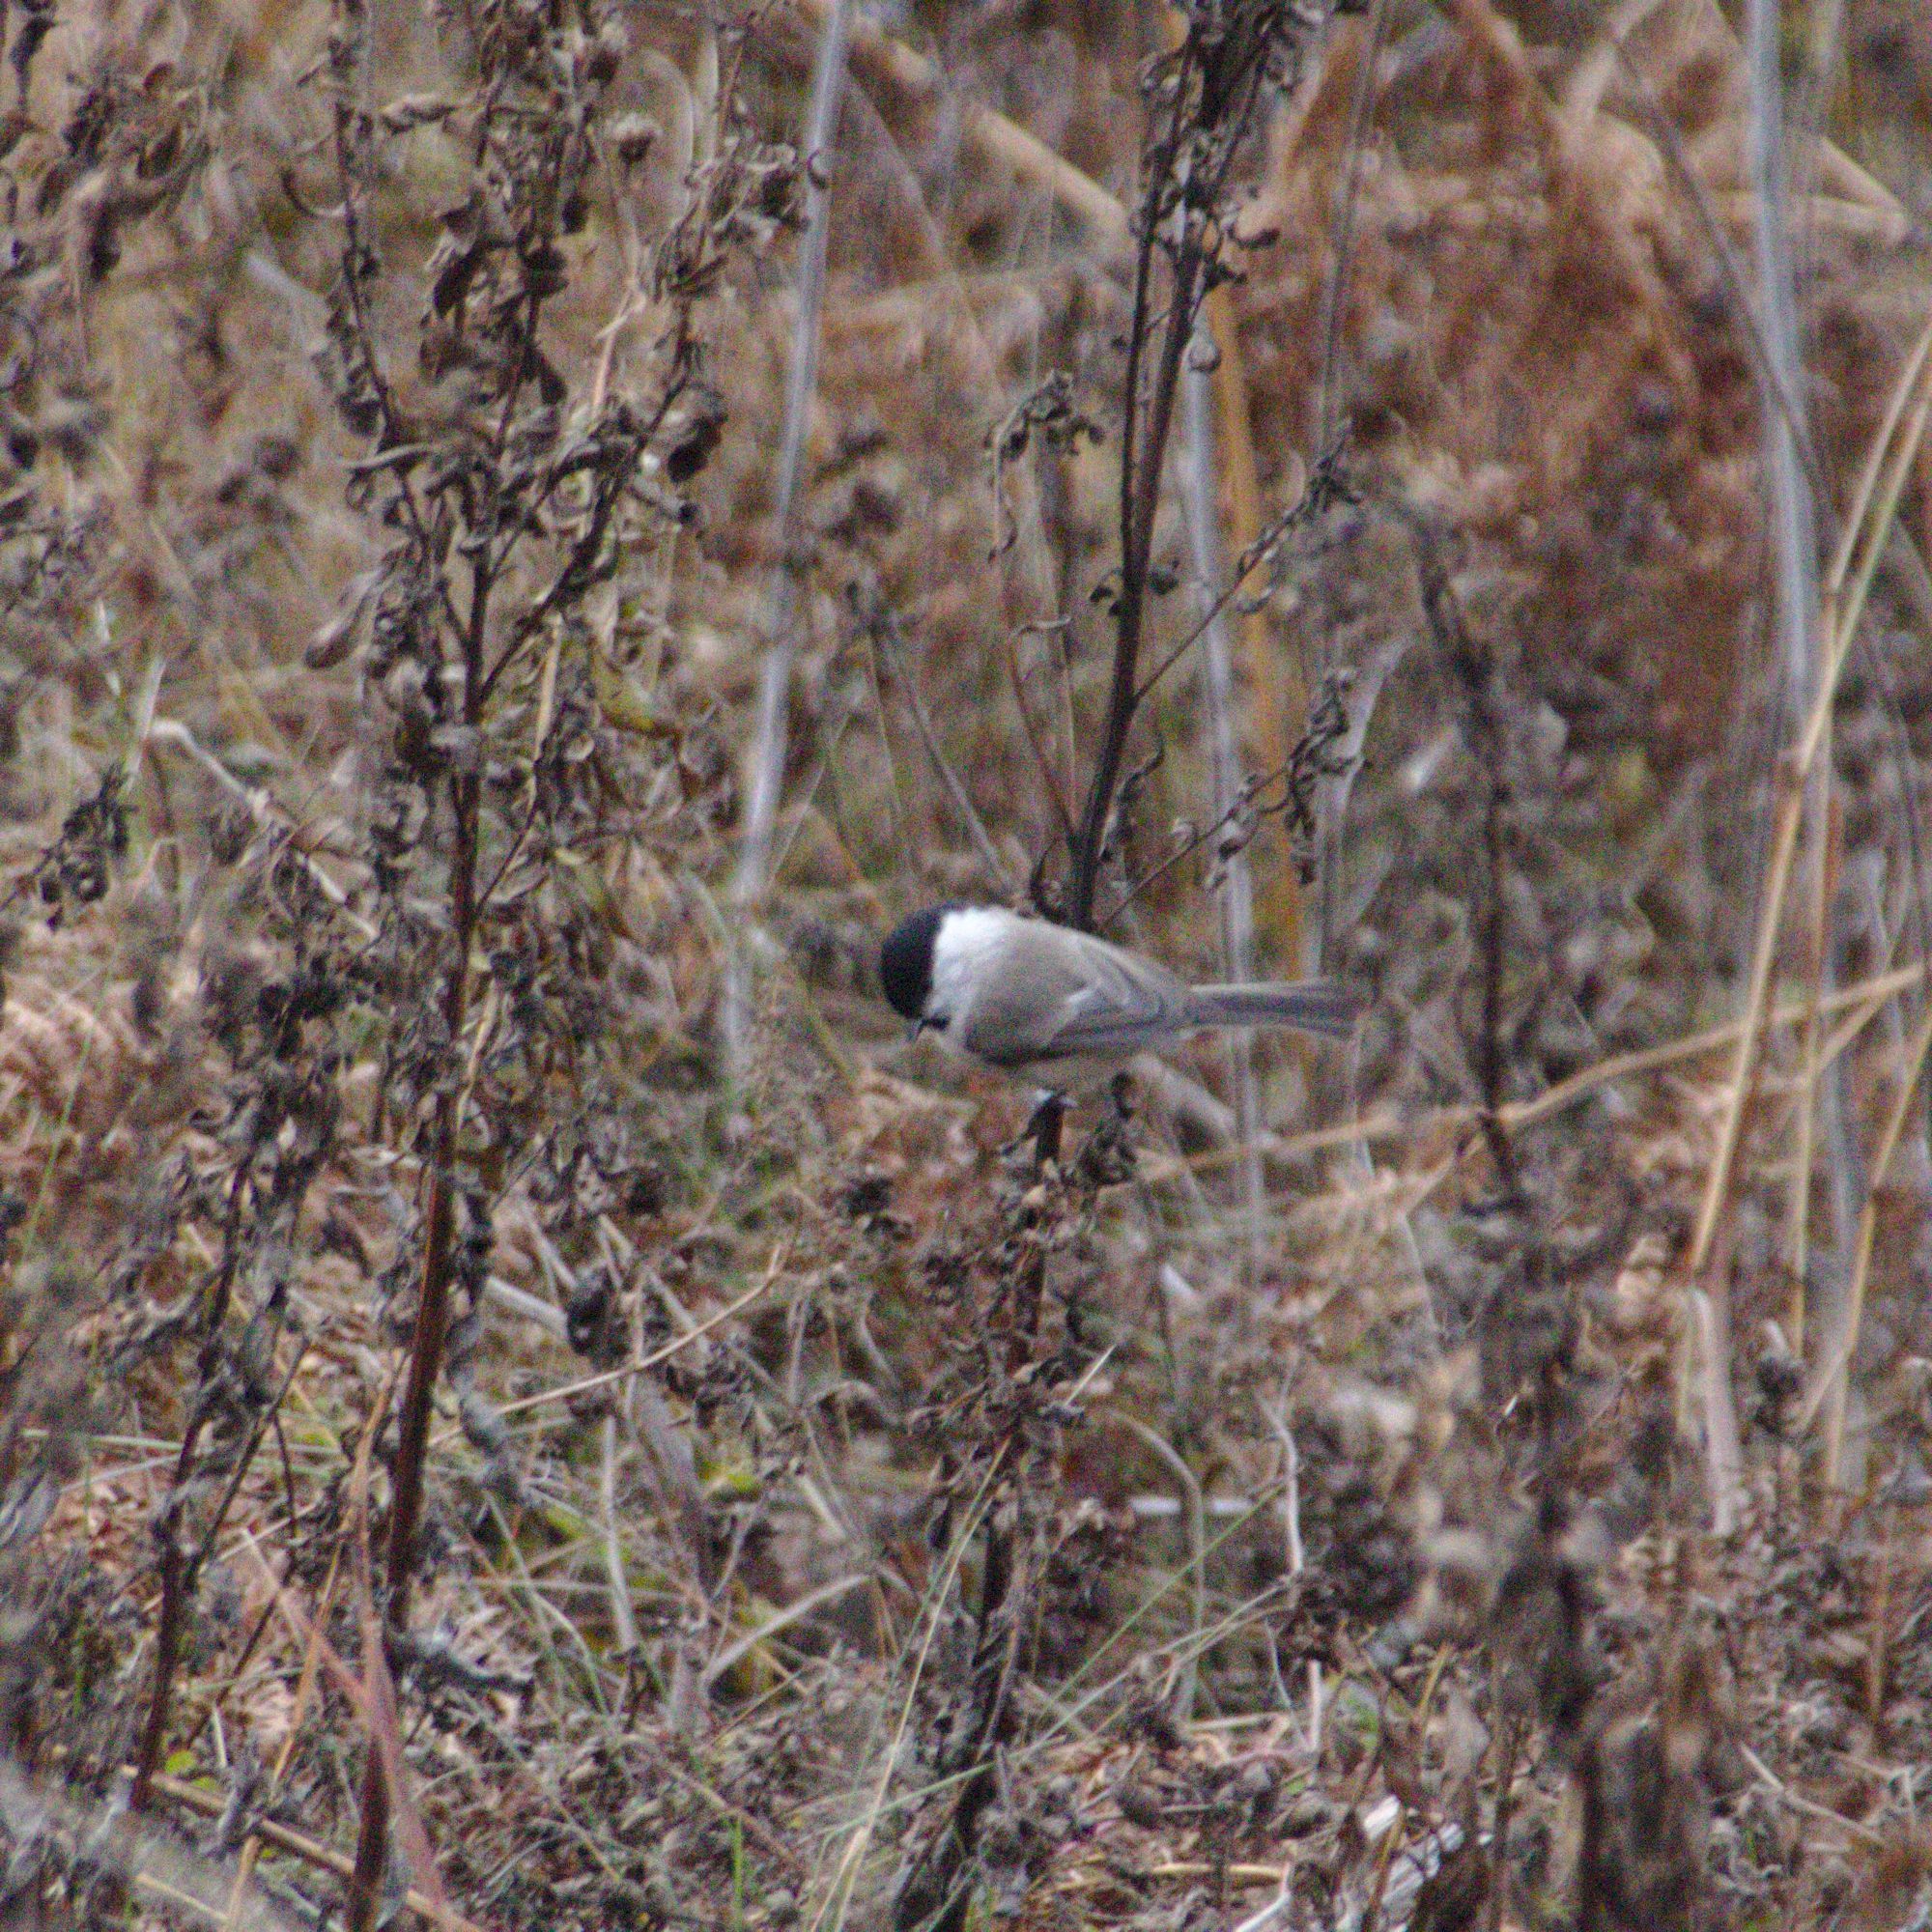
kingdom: Animalia
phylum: Chordata
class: Aves
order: Passeriformes
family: Paridae
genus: Poecile
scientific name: Poecile montanus
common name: Willow tit
